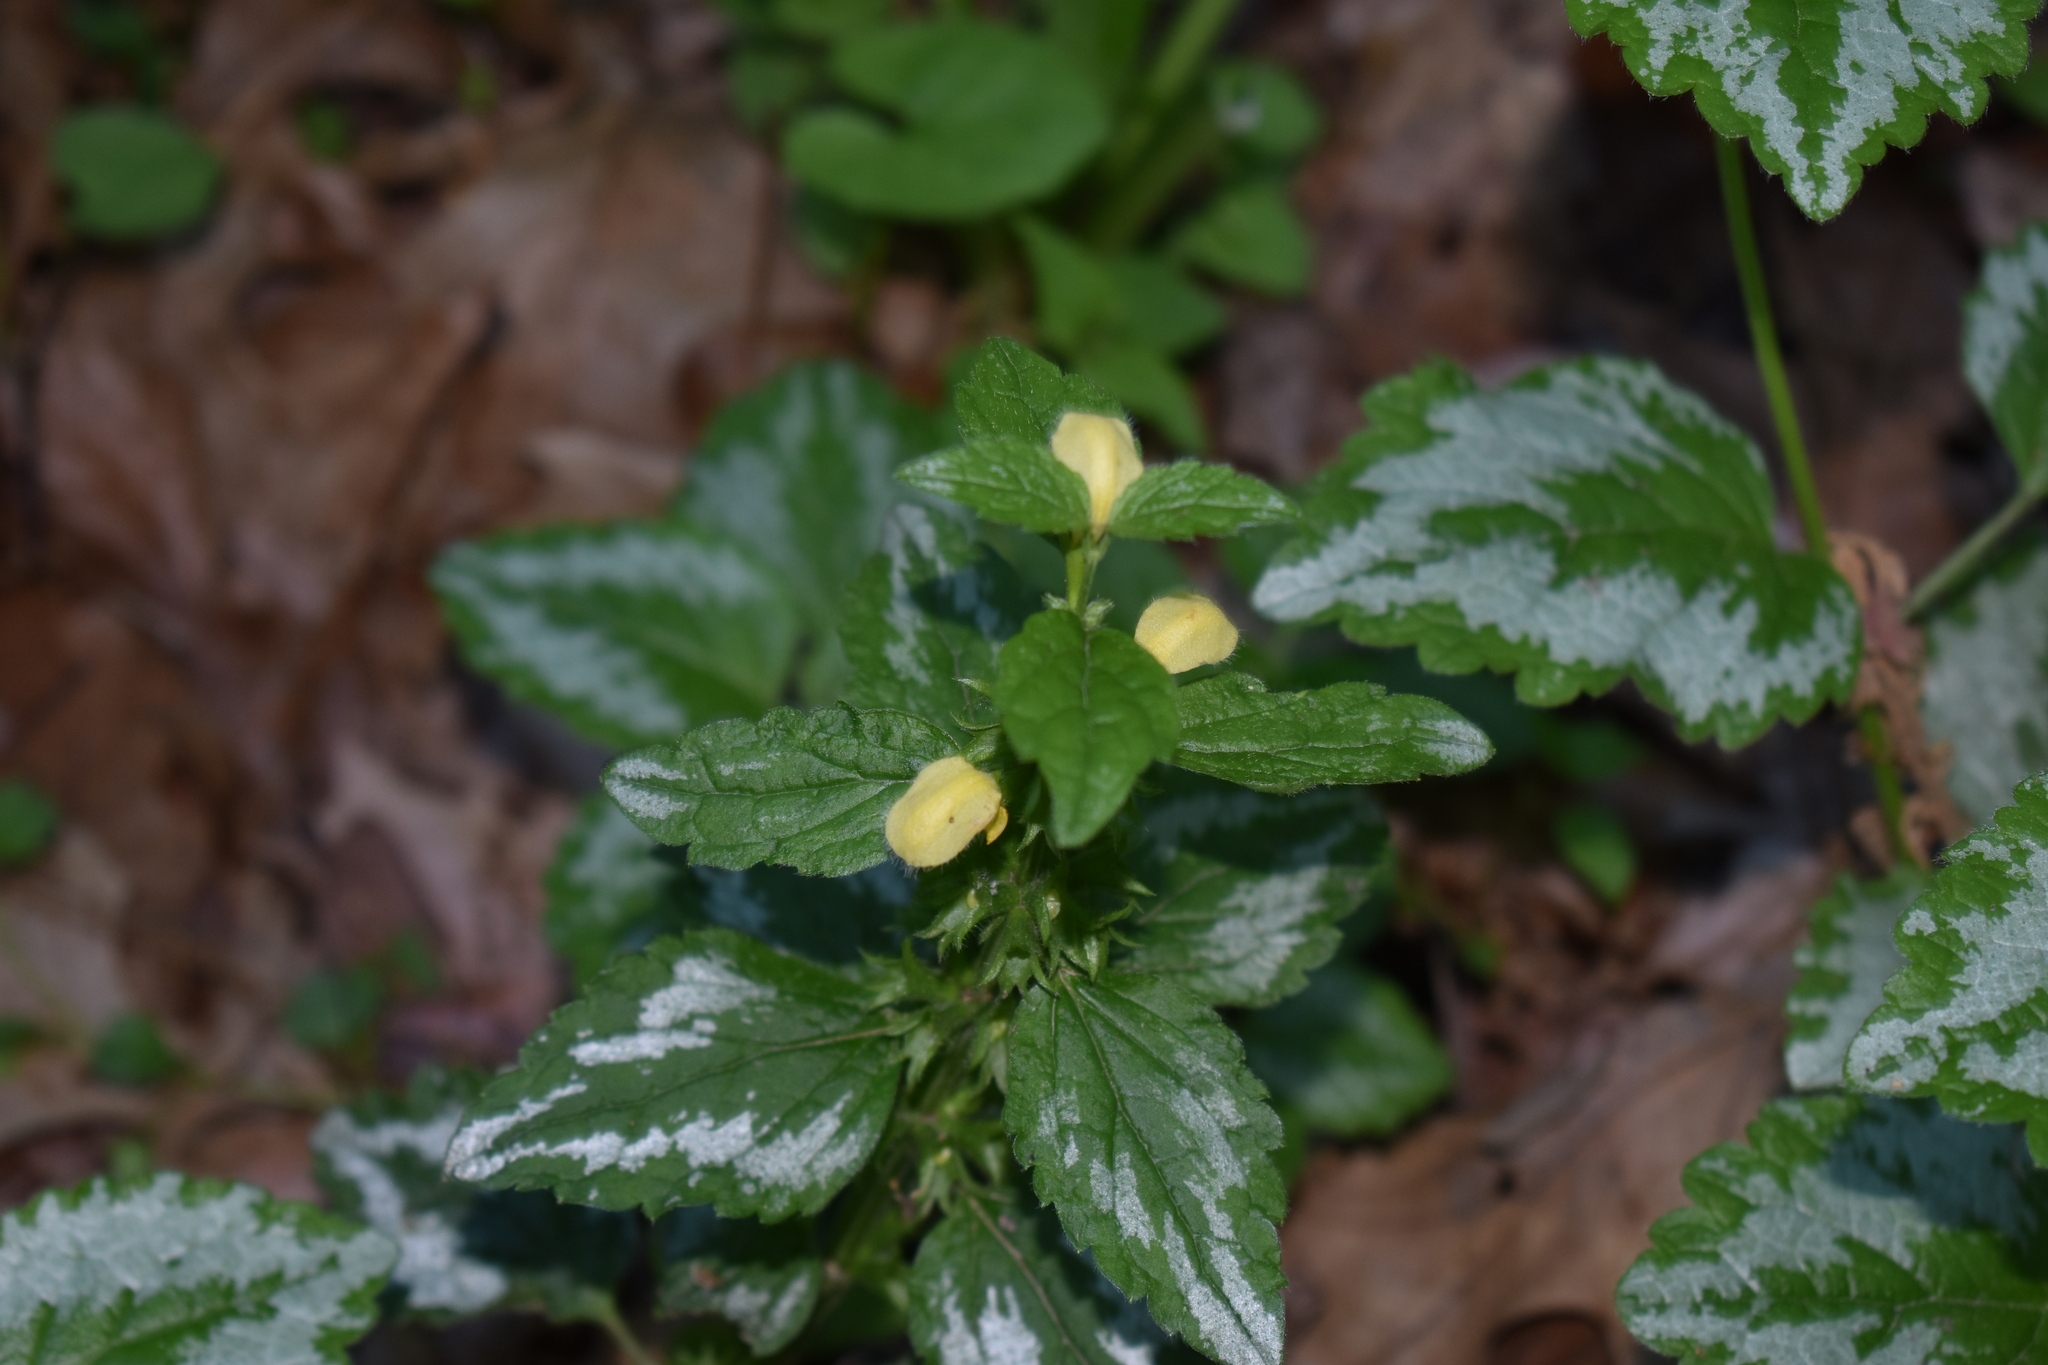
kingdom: Plantae
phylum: Tracheophyta
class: Magnoliopsida
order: Lamiales
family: Lamiaceae
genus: Lamium
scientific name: Lamium galeobdolon
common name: Yellow archangel
